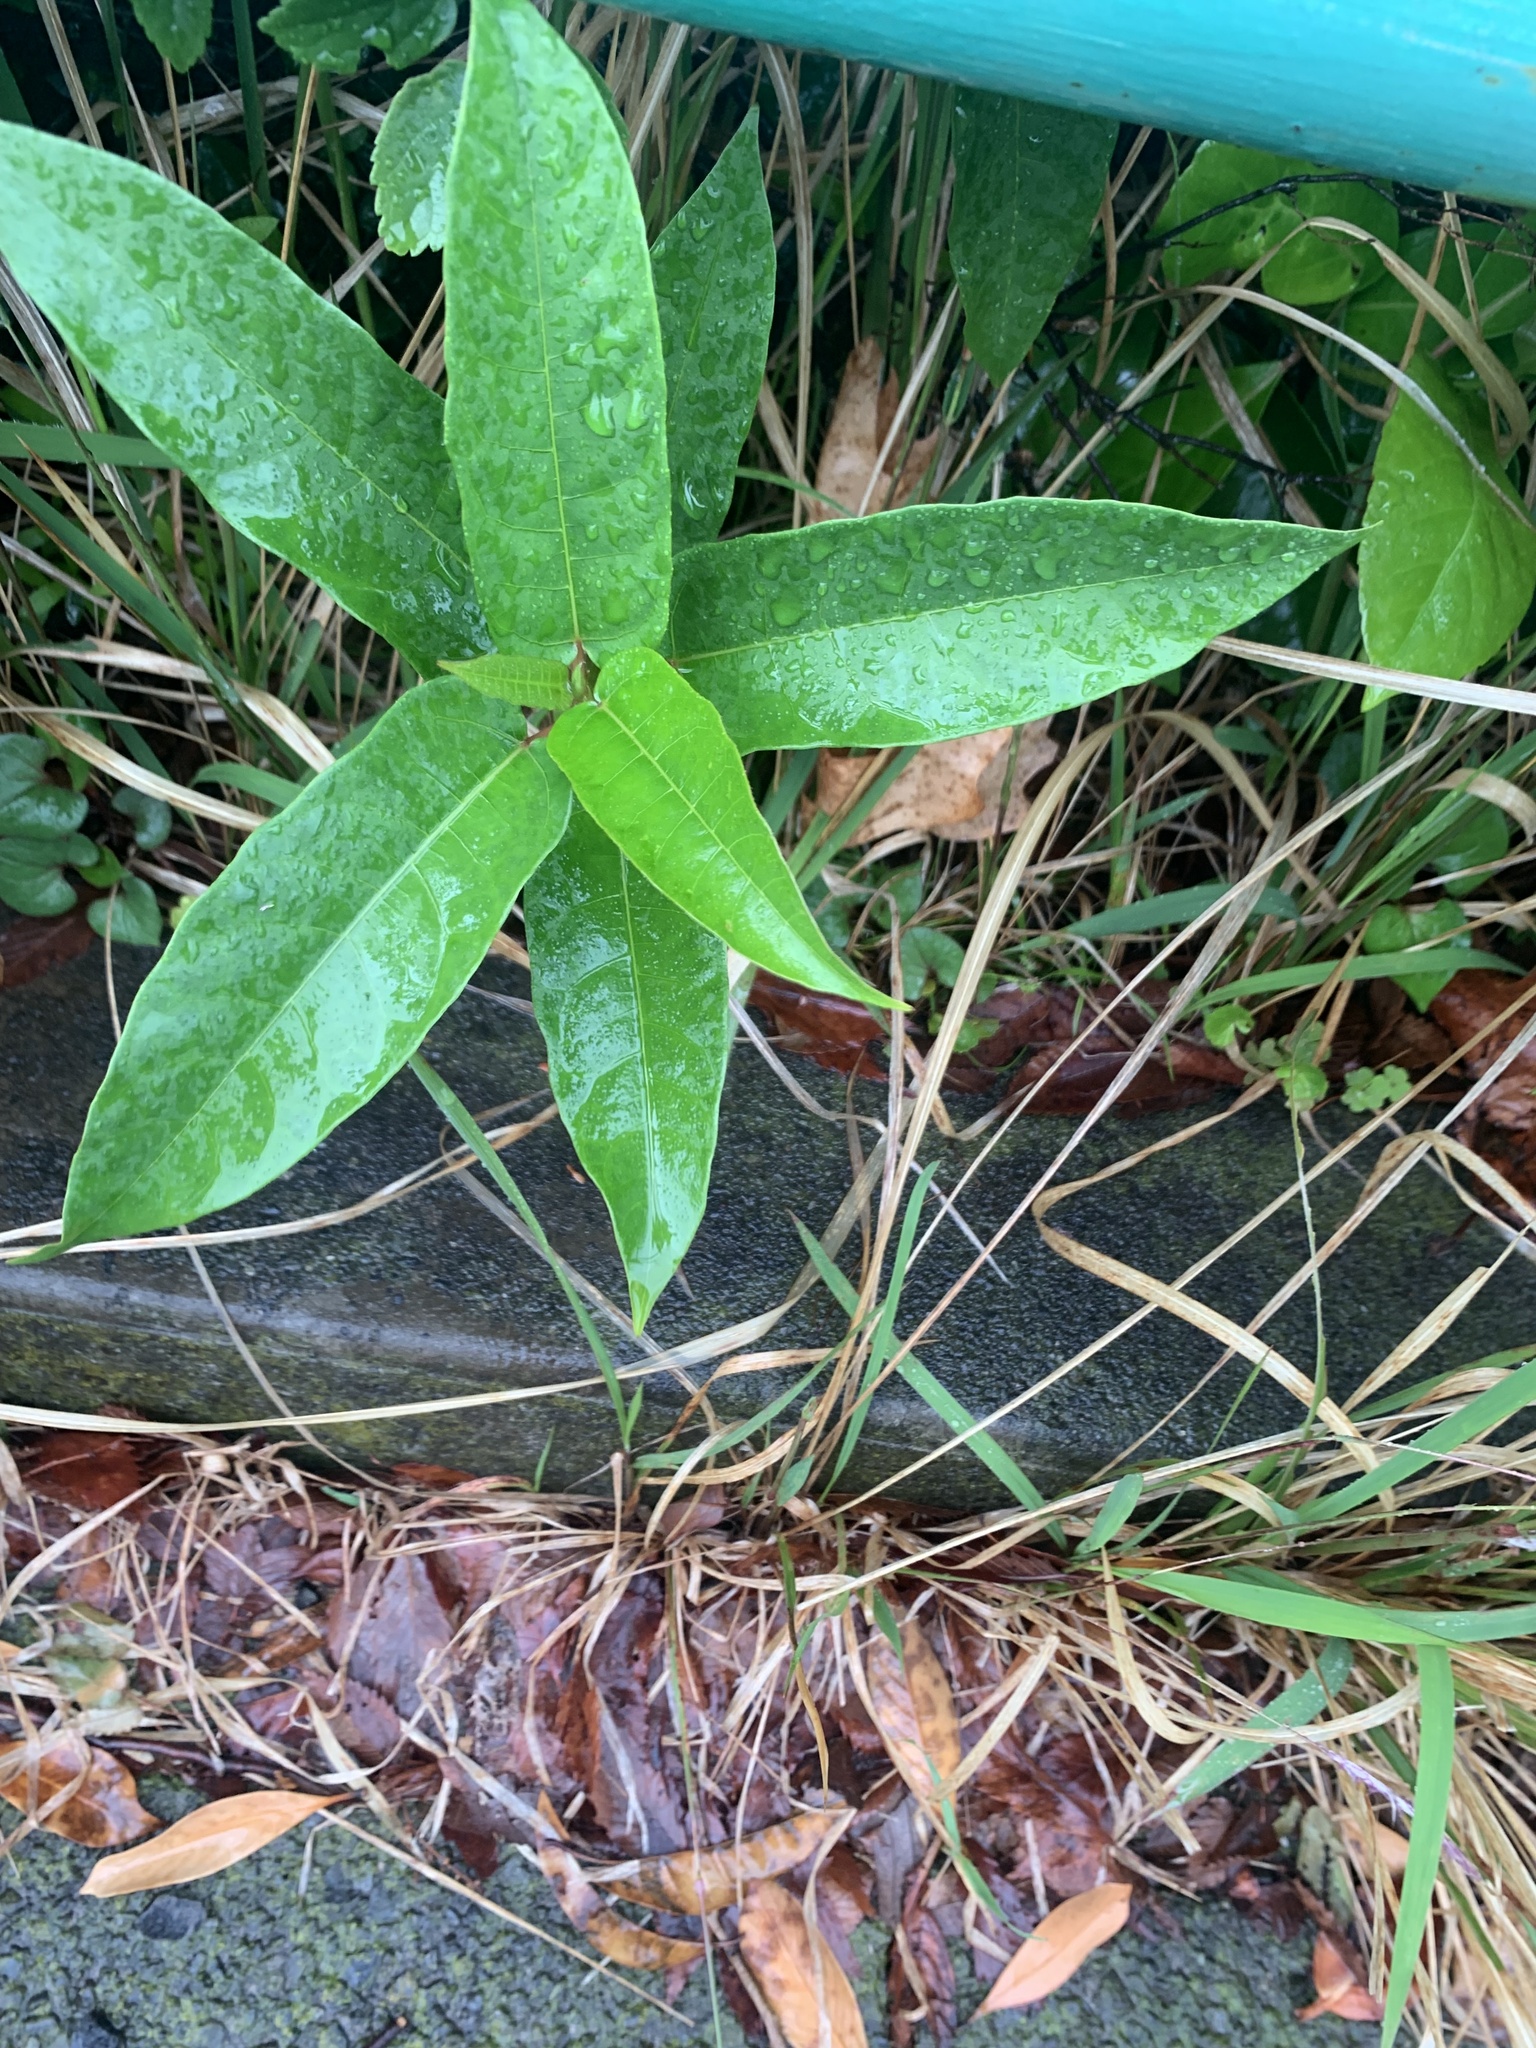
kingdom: Plantae
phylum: Tracheophyta
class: Magnoliopsida
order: Rosales
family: Moraceae
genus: Ficus
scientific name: Ficus erecta
